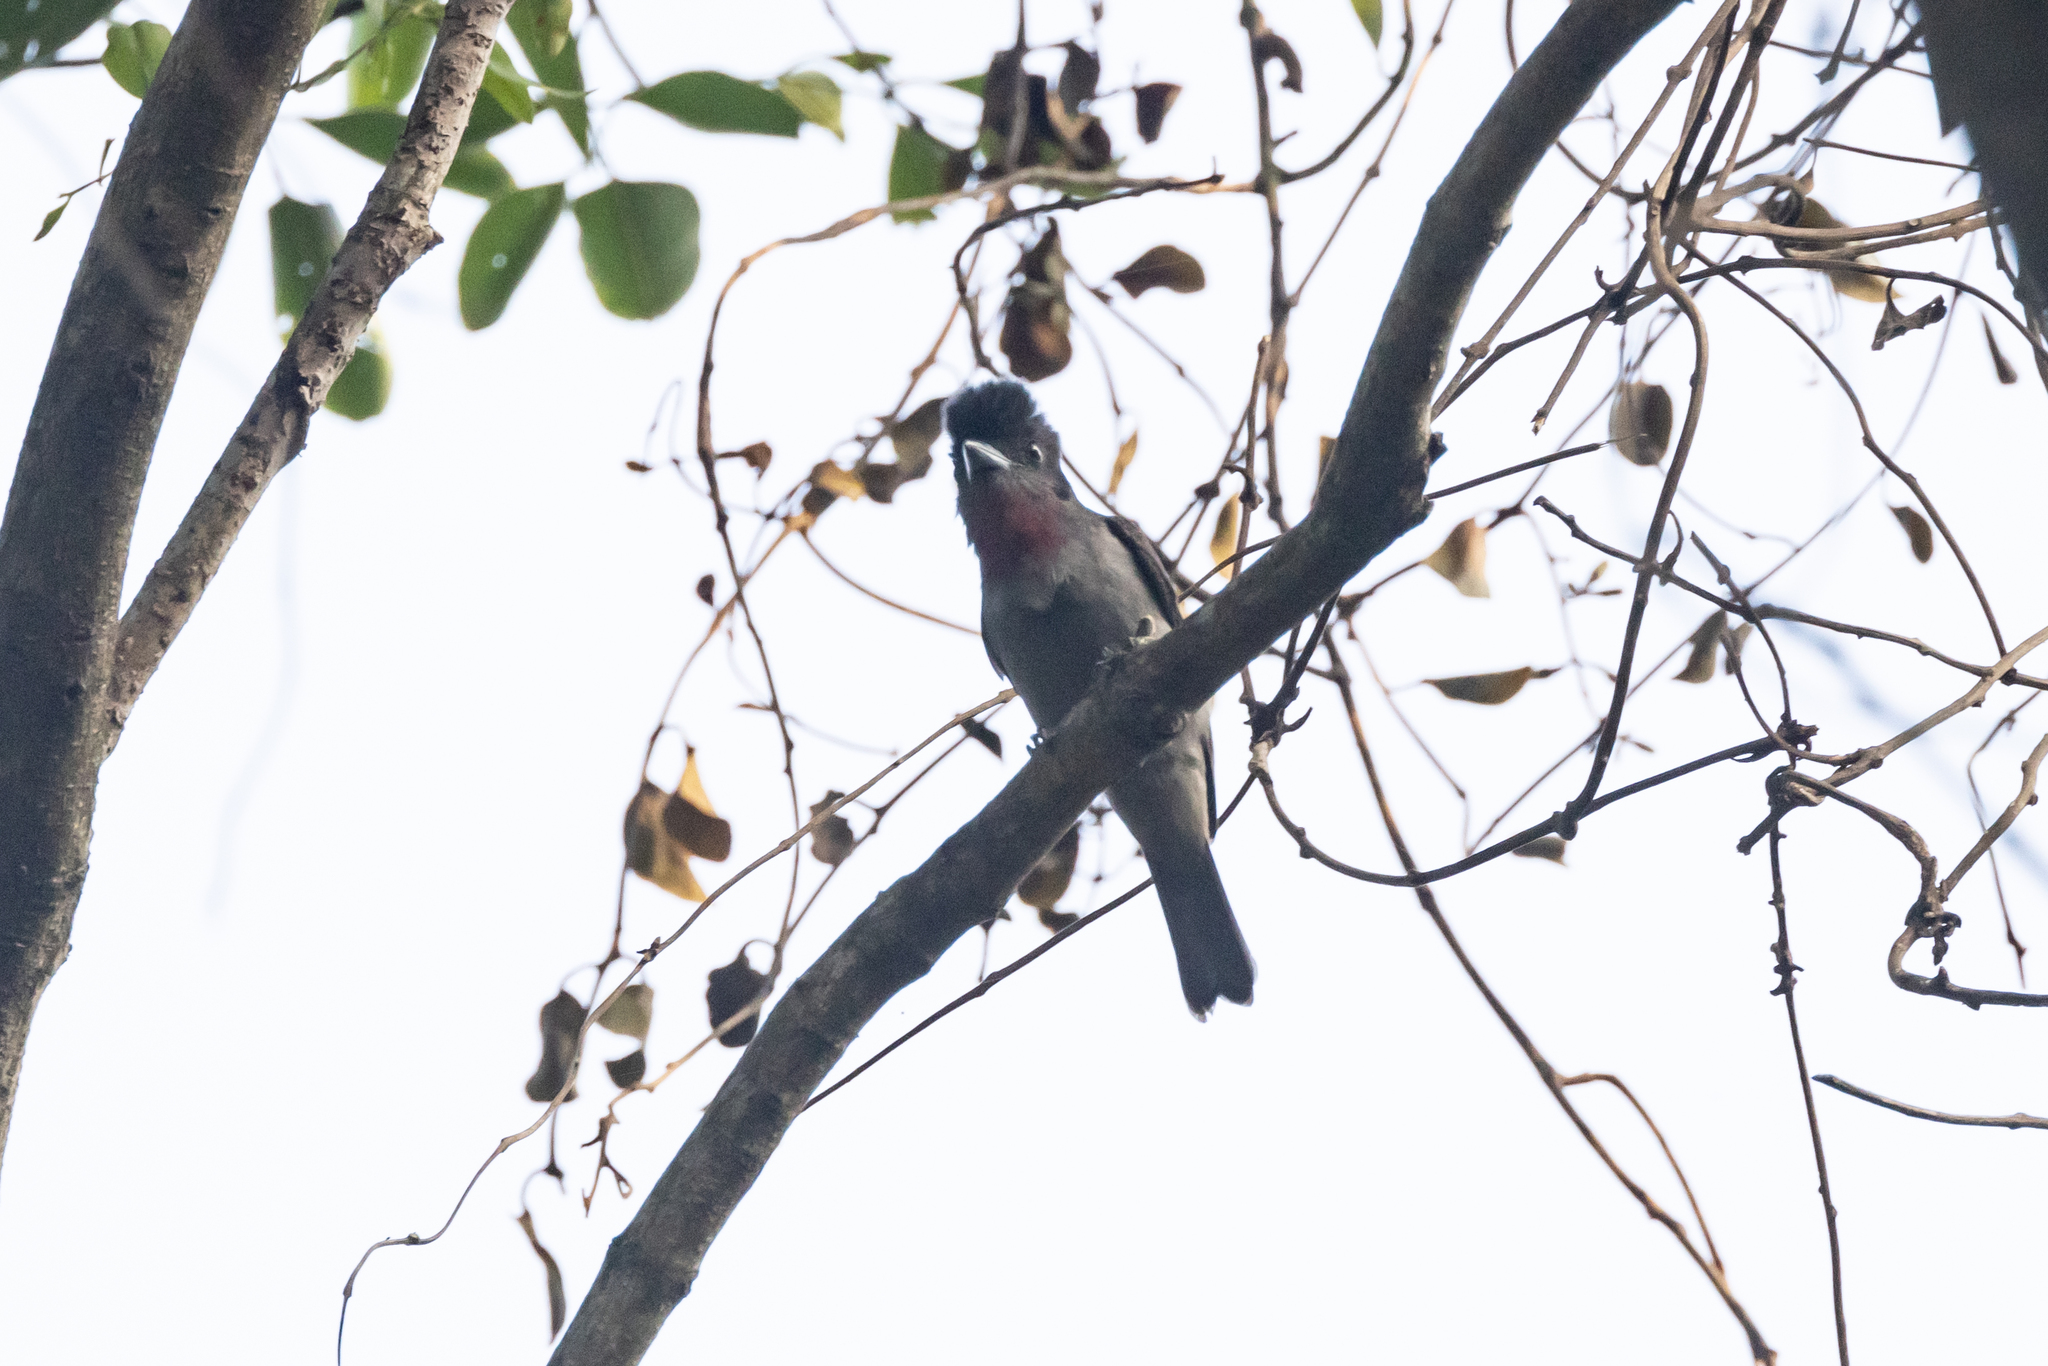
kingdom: Animalia
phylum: Chordata
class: Aves
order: Passeriformes
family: Cotingidae
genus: Pachyramphus
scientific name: Pachyramphus aglaiae
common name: Rose-throated becard
